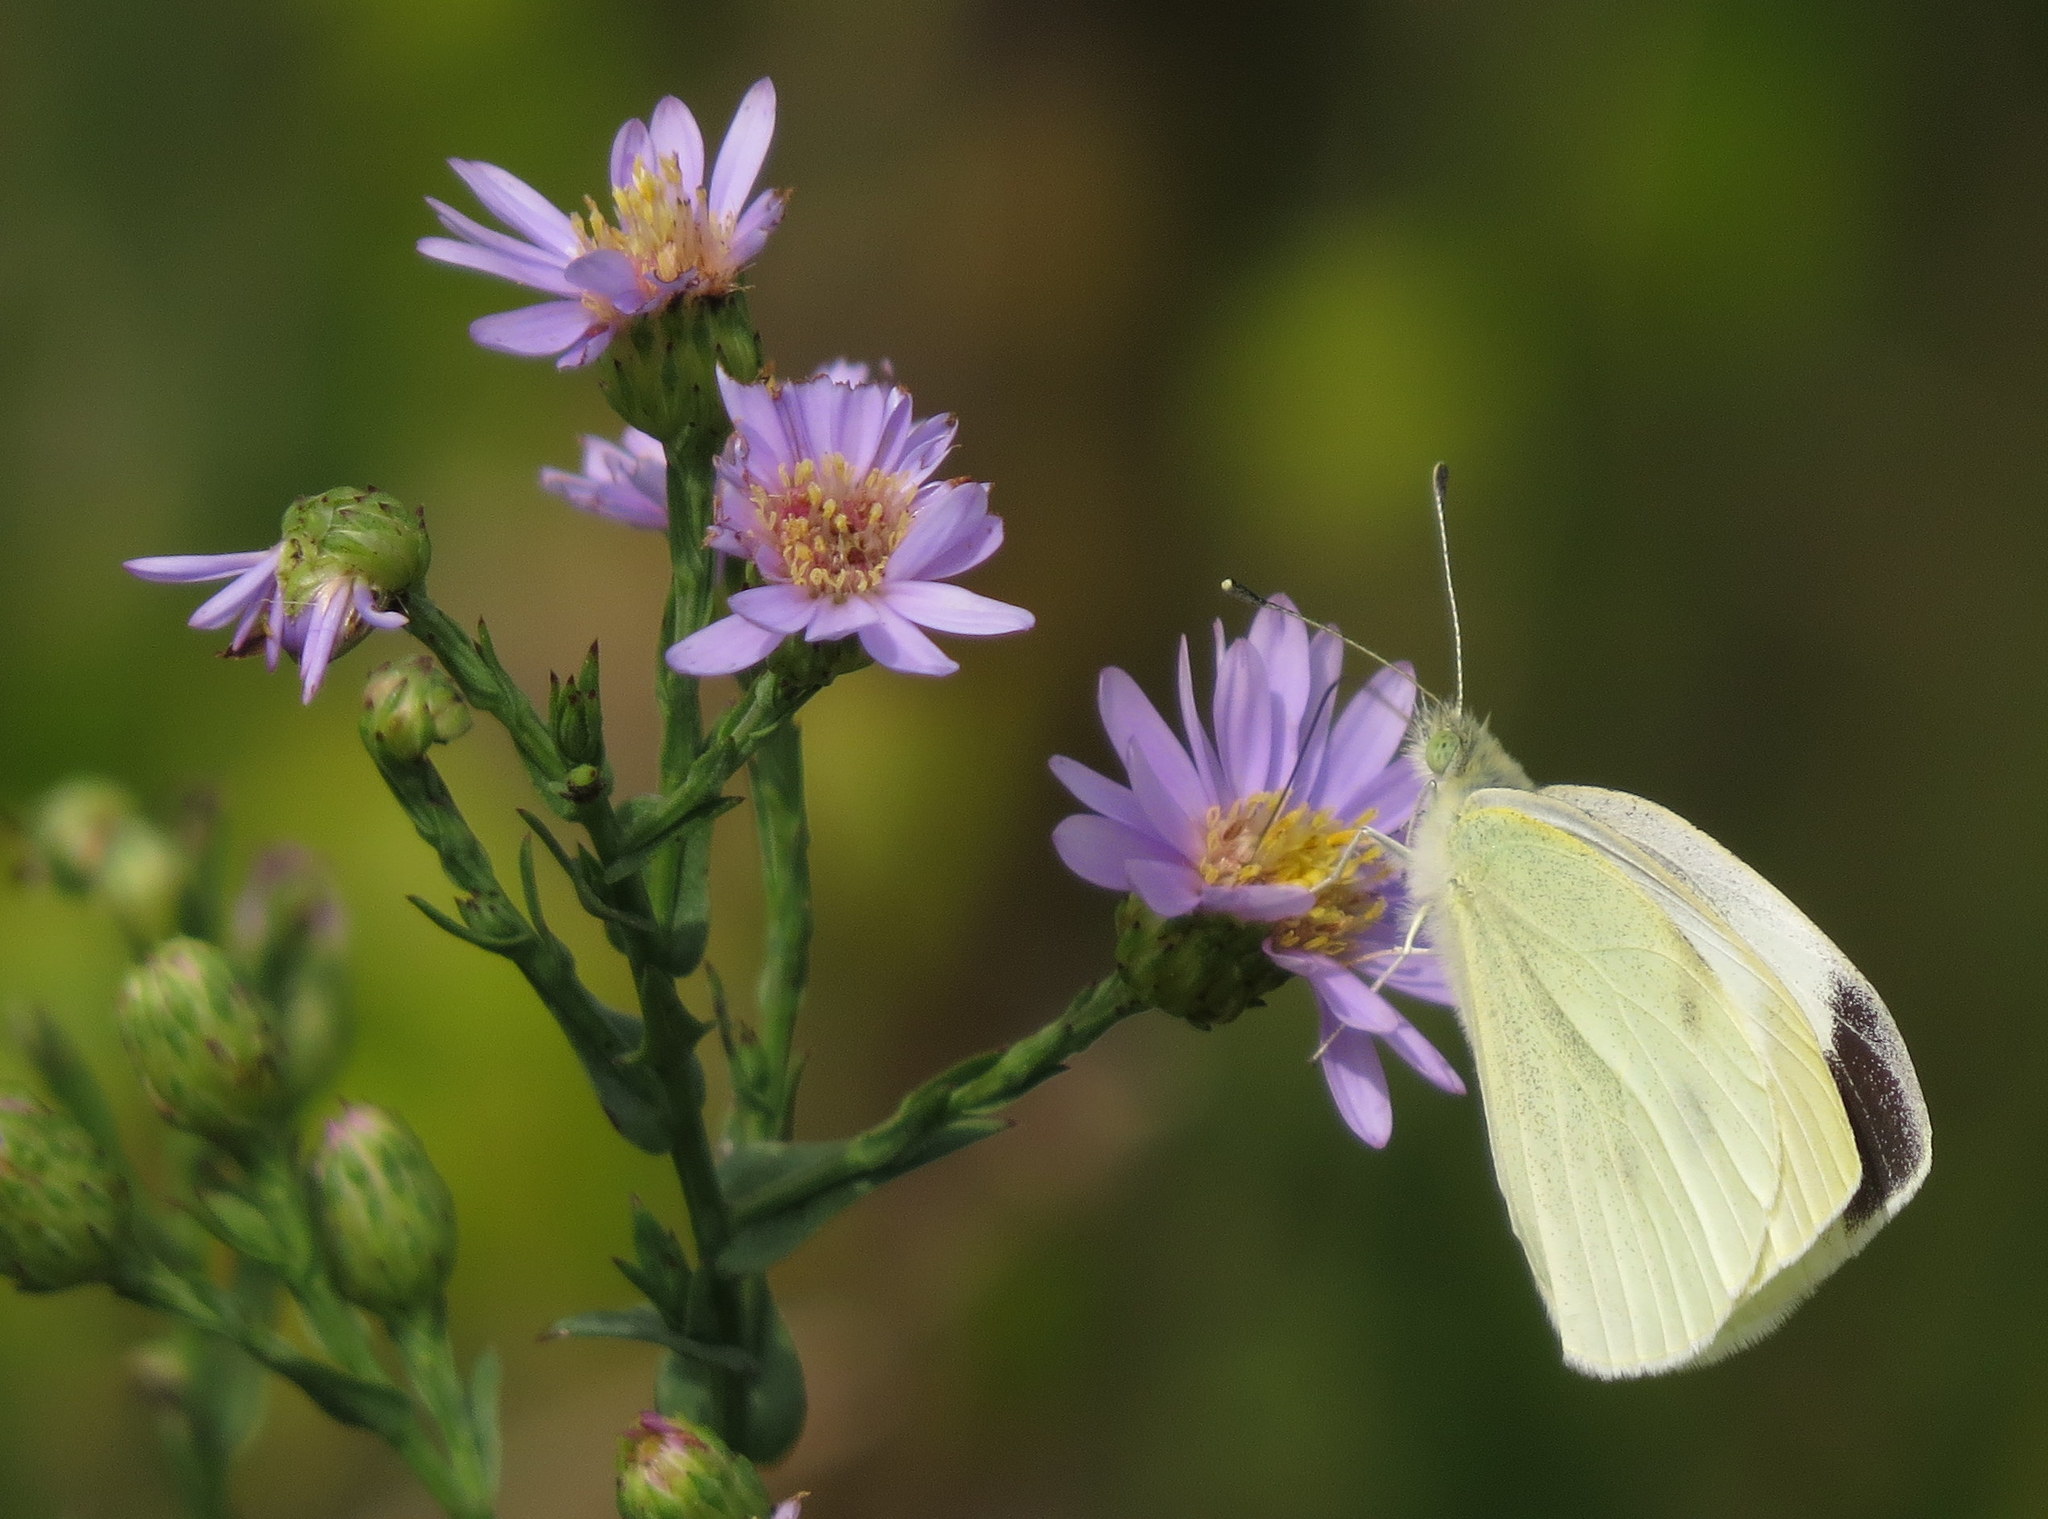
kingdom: Animalia
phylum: Arthropoda
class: Insecta
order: Lepidoptera
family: Pieridae
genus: Pieris
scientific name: Pieris rapae
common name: Small white
